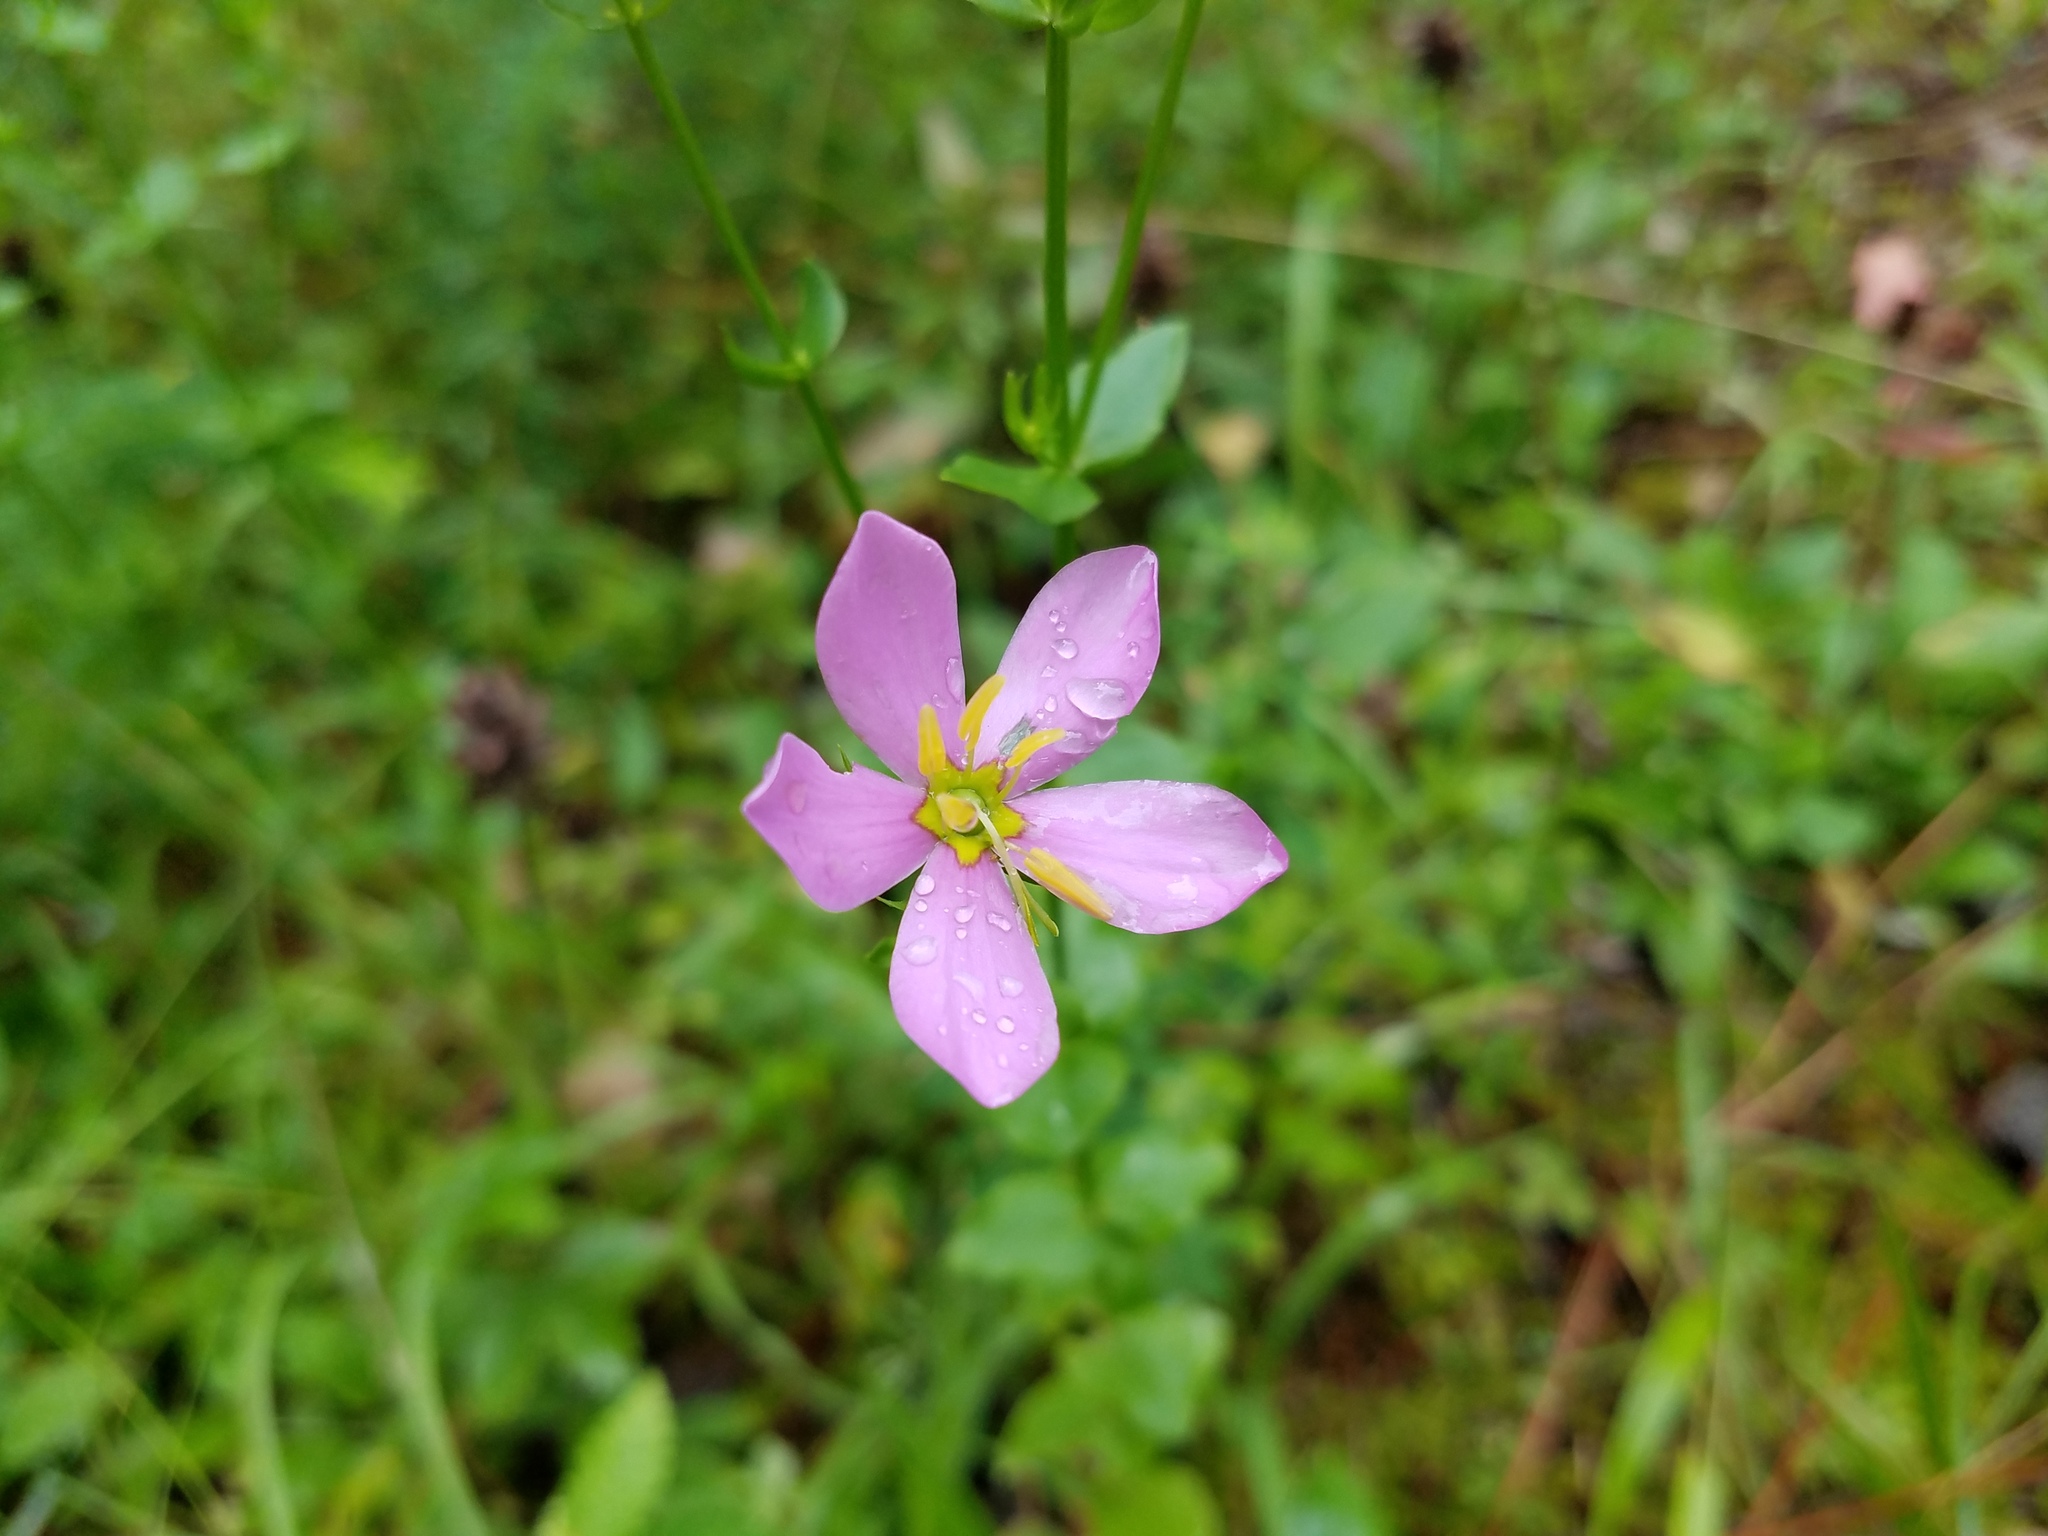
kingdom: Plantae
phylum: Tracheophyta
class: Magnoliopsida
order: Gentianales
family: Gentianaceae
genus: Sabatia
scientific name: Sabatia angularis
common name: Rose-pink
